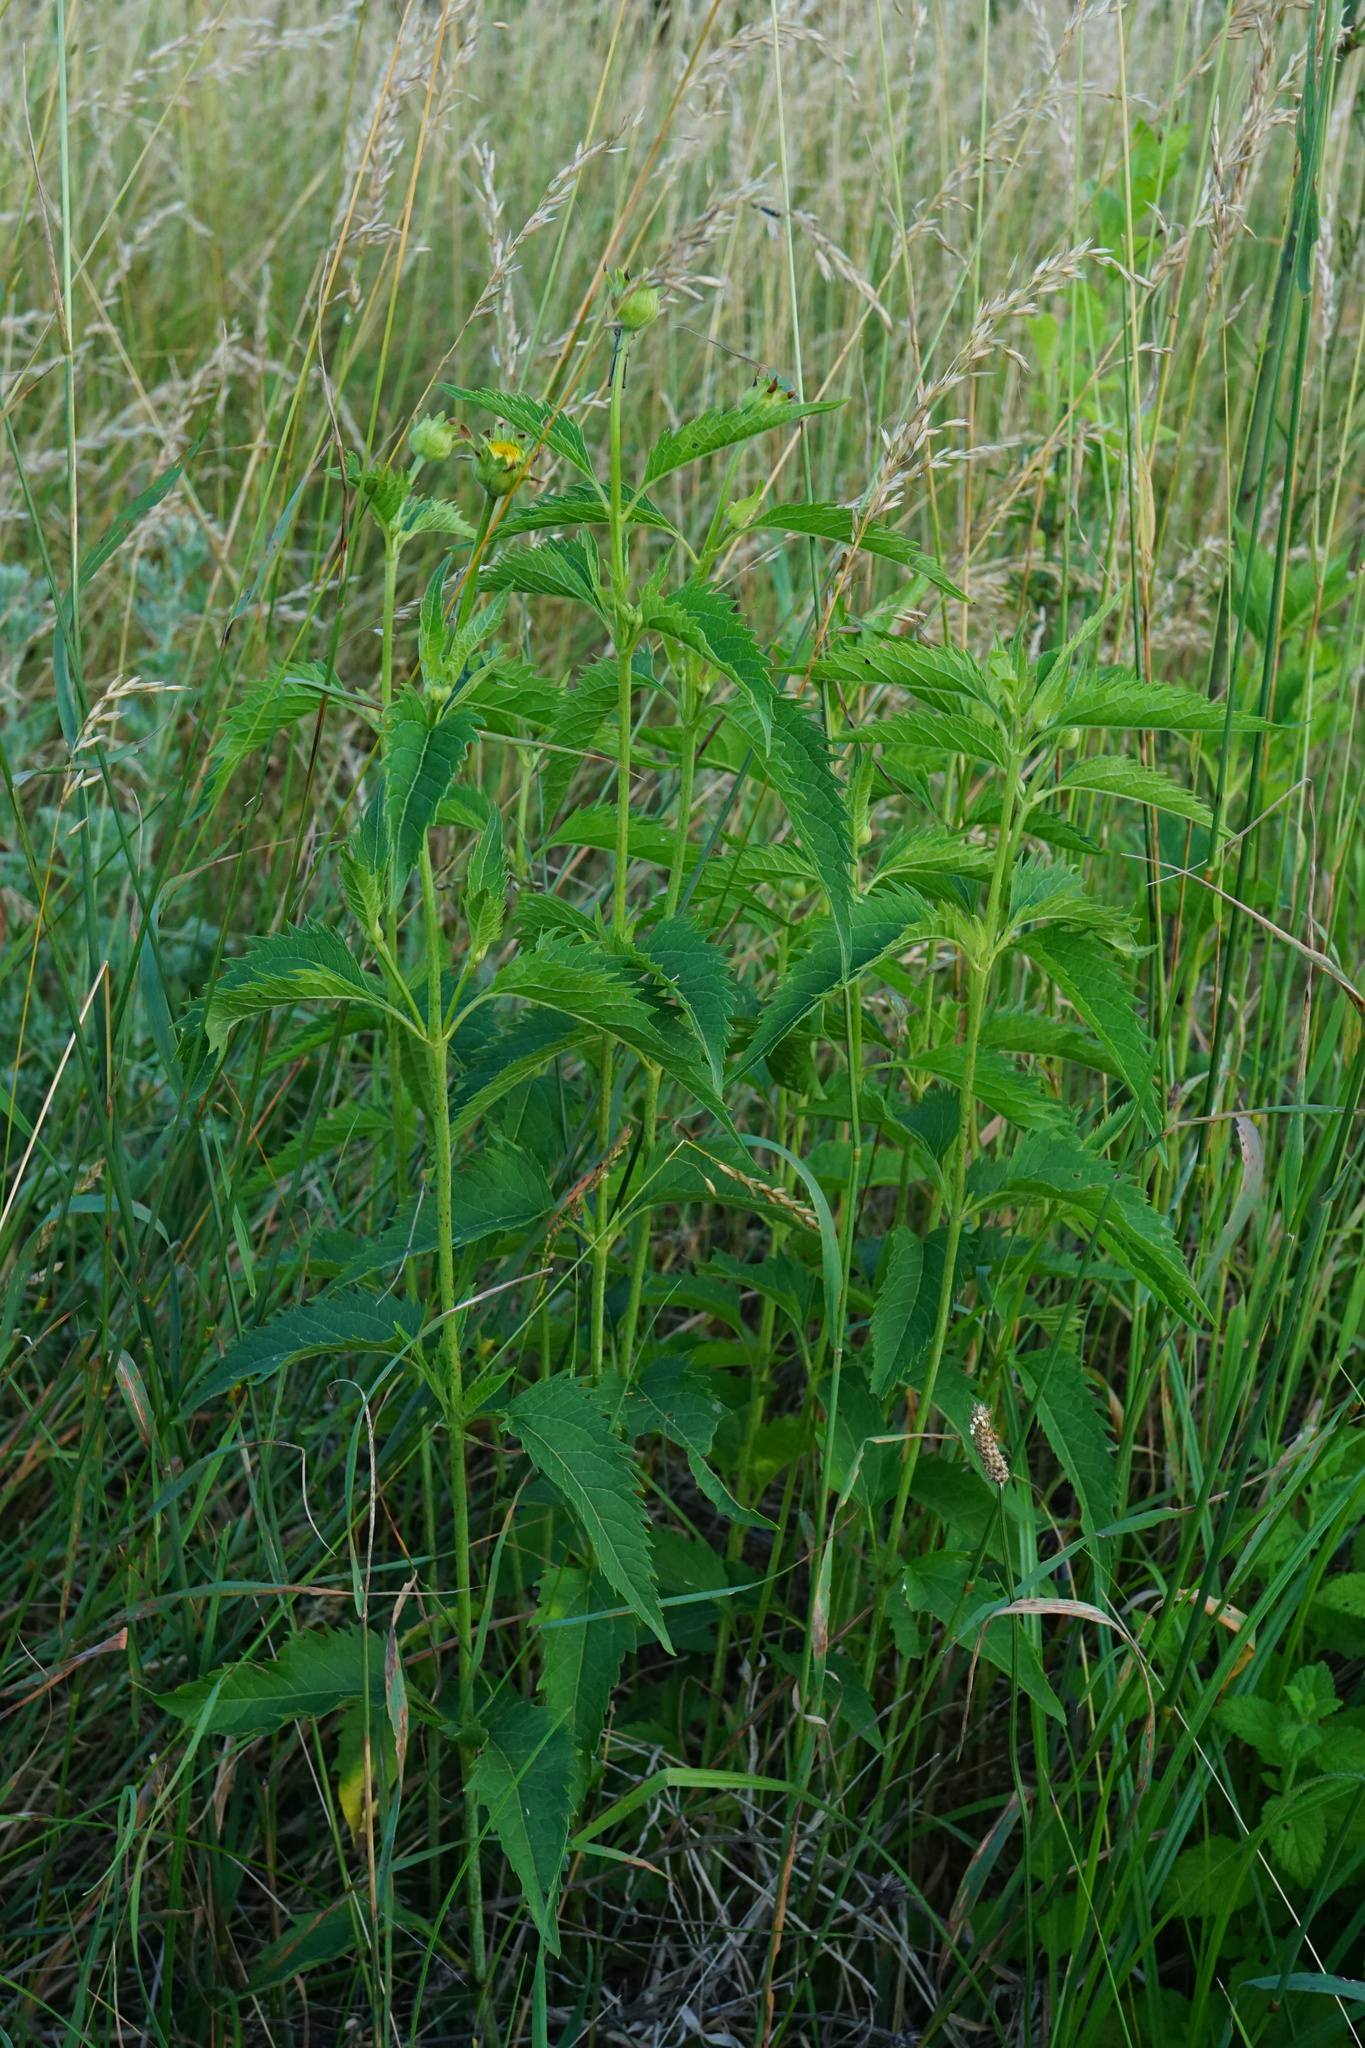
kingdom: Plantae
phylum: Tracheophyta
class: Magnoliopsida
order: Asterales
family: Asteraceae
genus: Heliopsis
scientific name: Heliopsis helianthoides
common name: False sunflower
